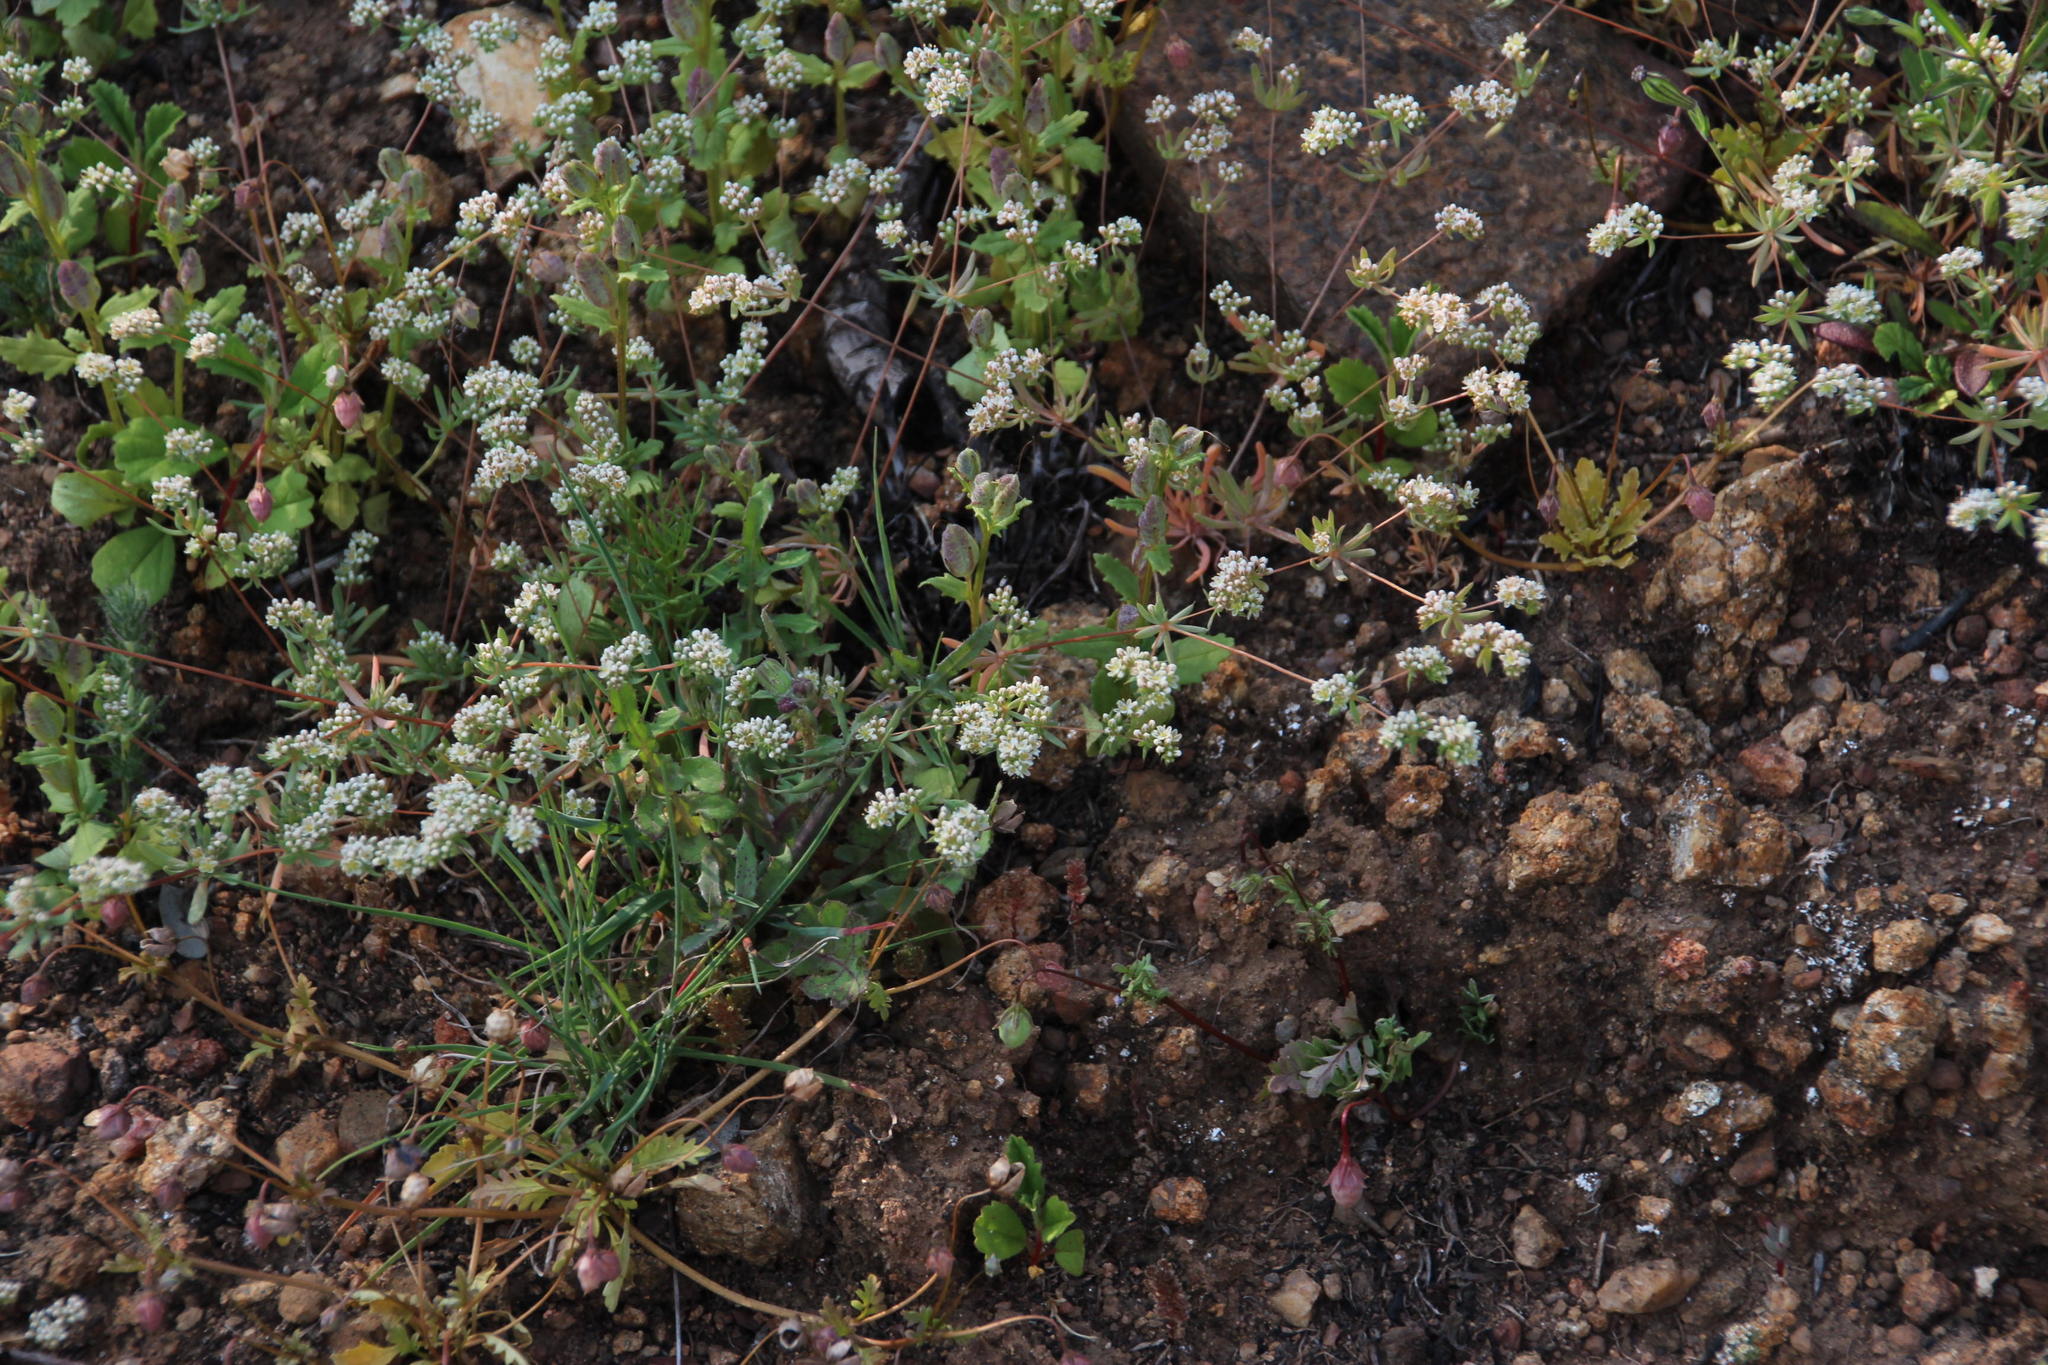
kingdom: Plantae
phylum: Tracheophyta
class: Magnoliopsida
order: Caryophyllales
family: Molluginaceae
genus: Adenogramma
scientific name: Adenogramma glomerata
